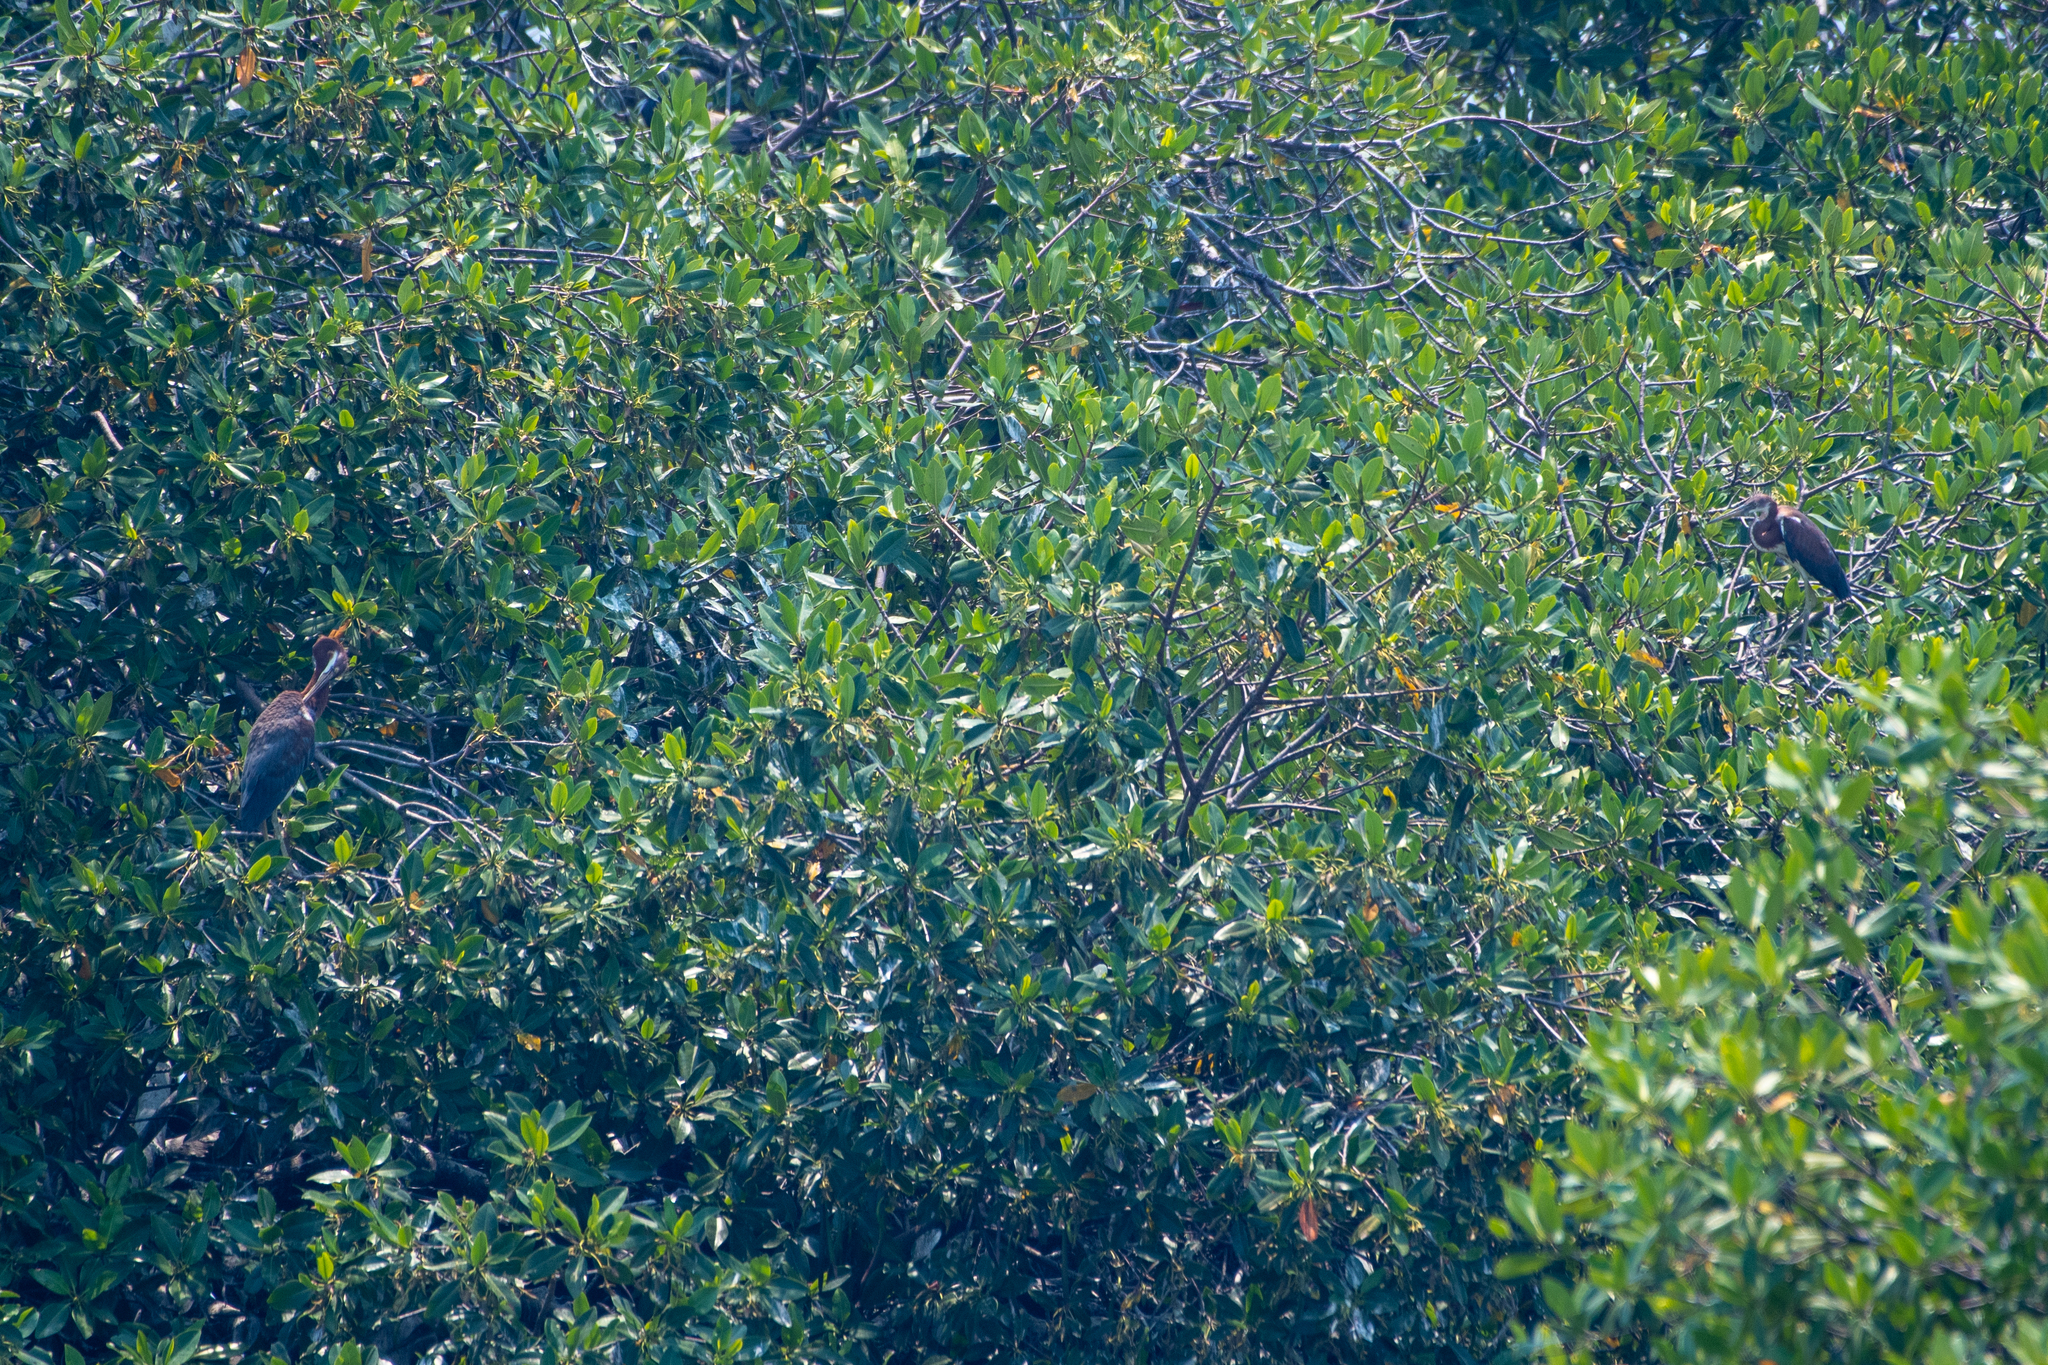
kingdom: Animalia
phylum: Chordata
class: Aves
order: Pelecaniformes
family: Ardeidae
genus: Egretta
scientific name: Egretta tricolor
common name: Tricolored heron
